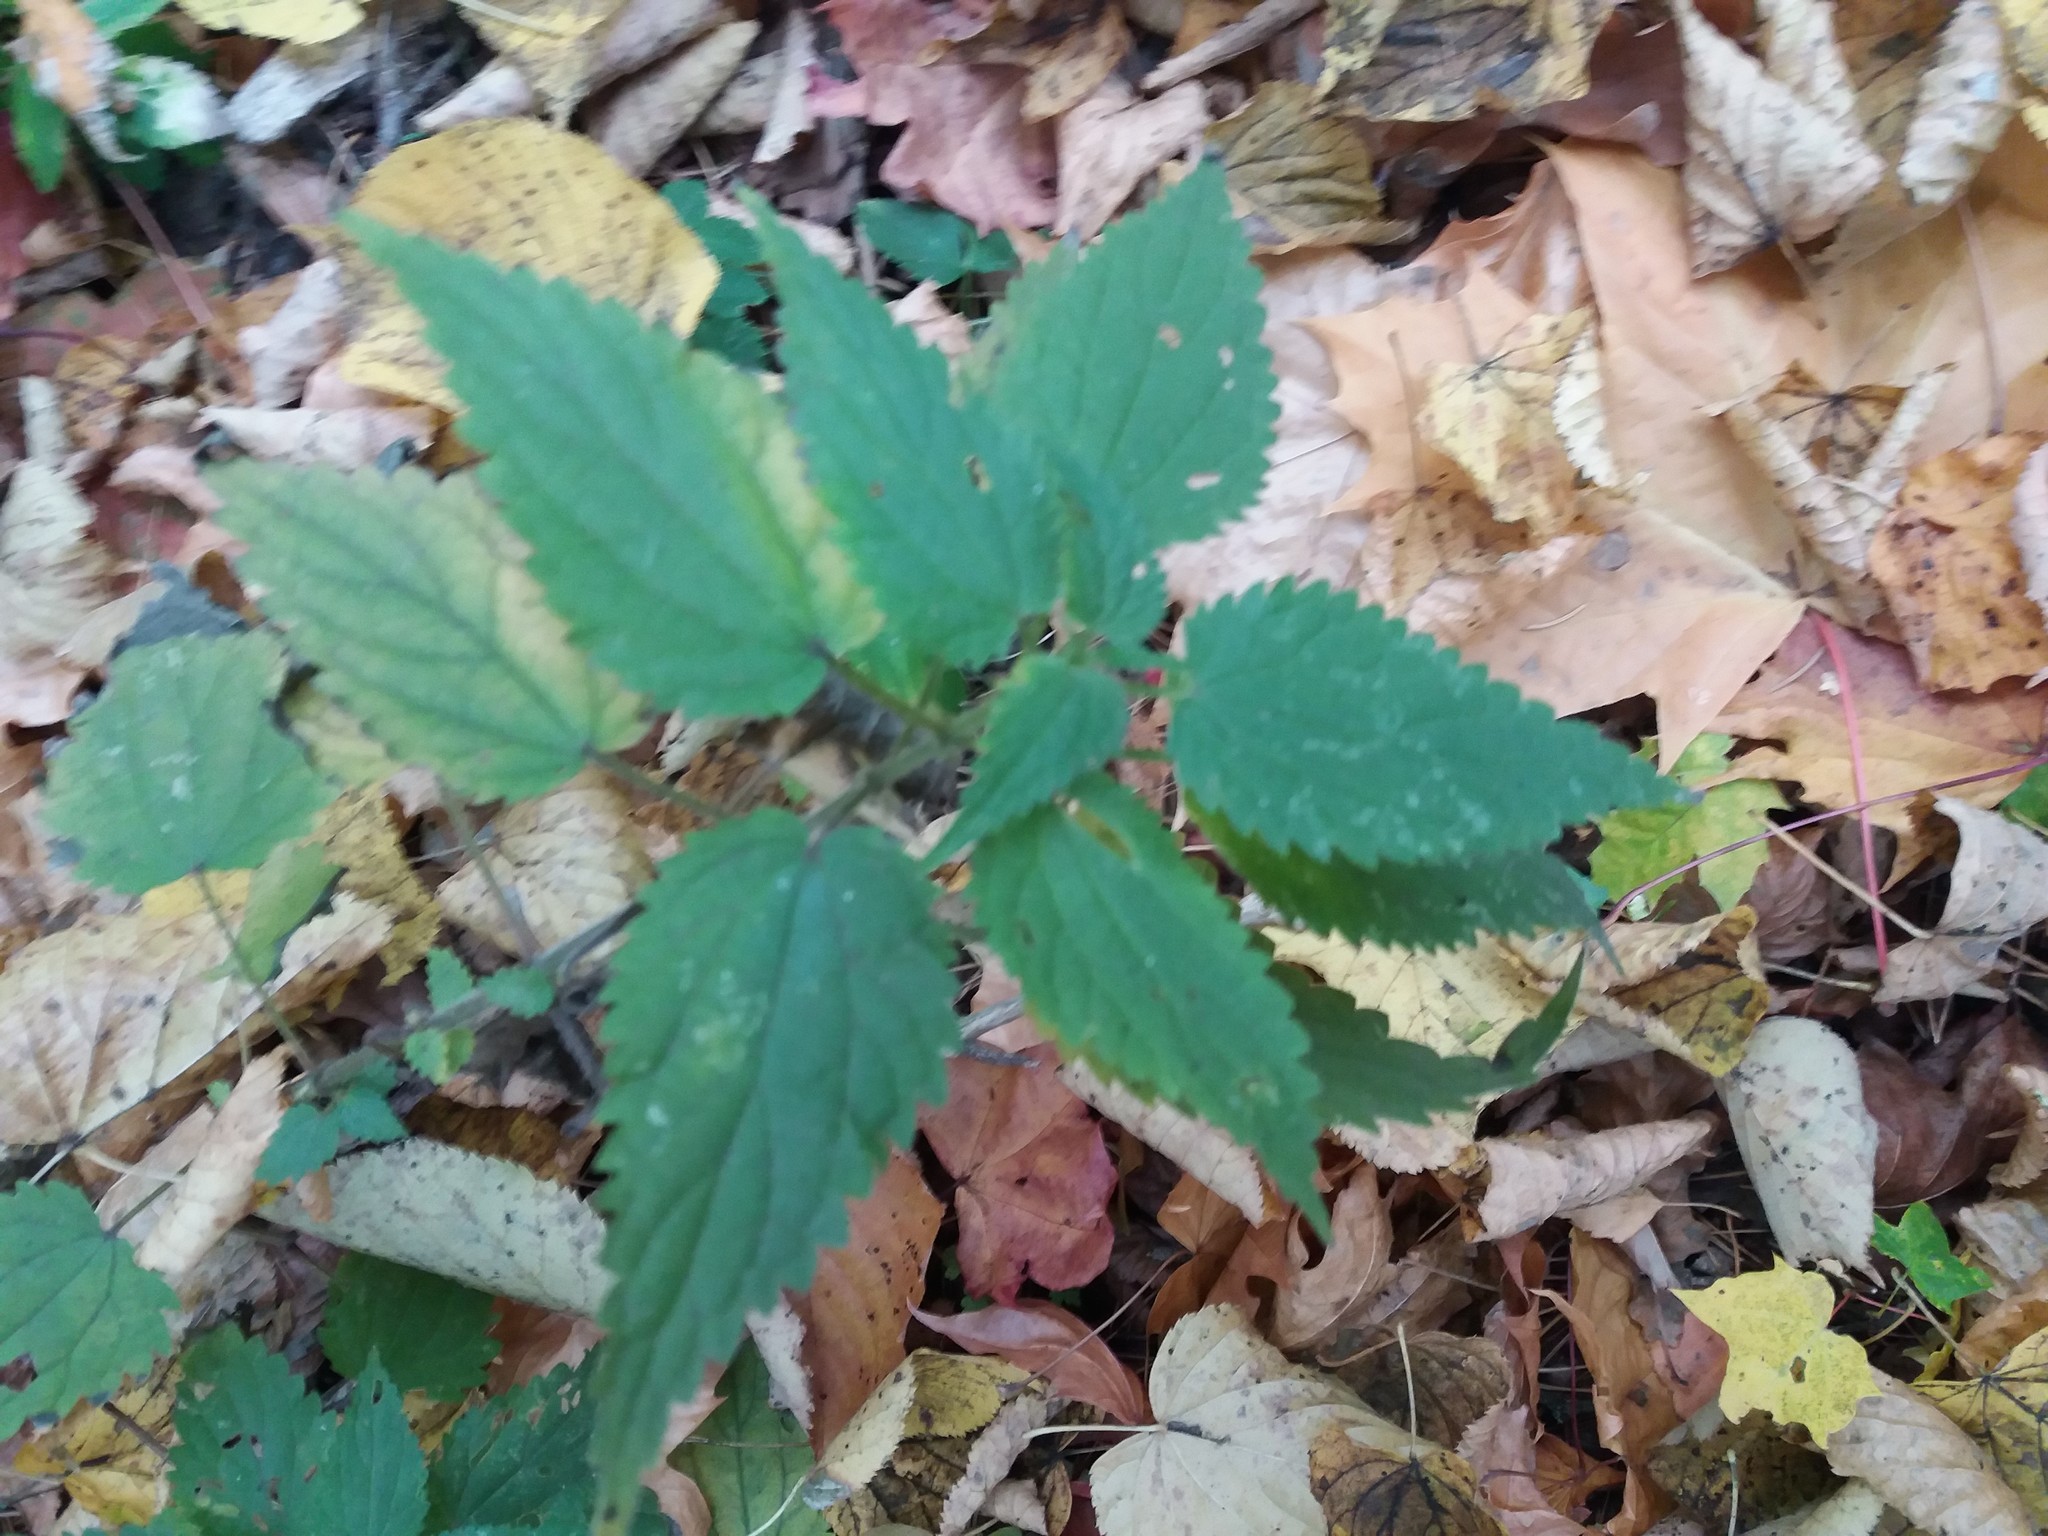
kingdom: Plantae
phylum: Tracheophyta
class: Magnoliopsida
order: Rosales
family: Urticaceae
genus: Urtica
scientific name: Urtica dioica
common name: Common nettle
